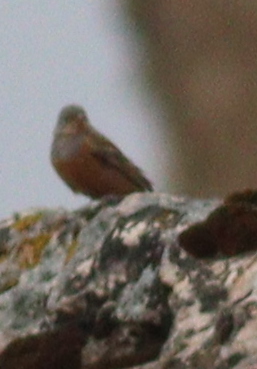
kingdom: Animalia
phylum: Chordata
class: Aves
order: Passeriformes
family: Emberizidae
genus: Emberiza
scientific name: Emberiza caesia
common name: Cretzschmar's bunting
